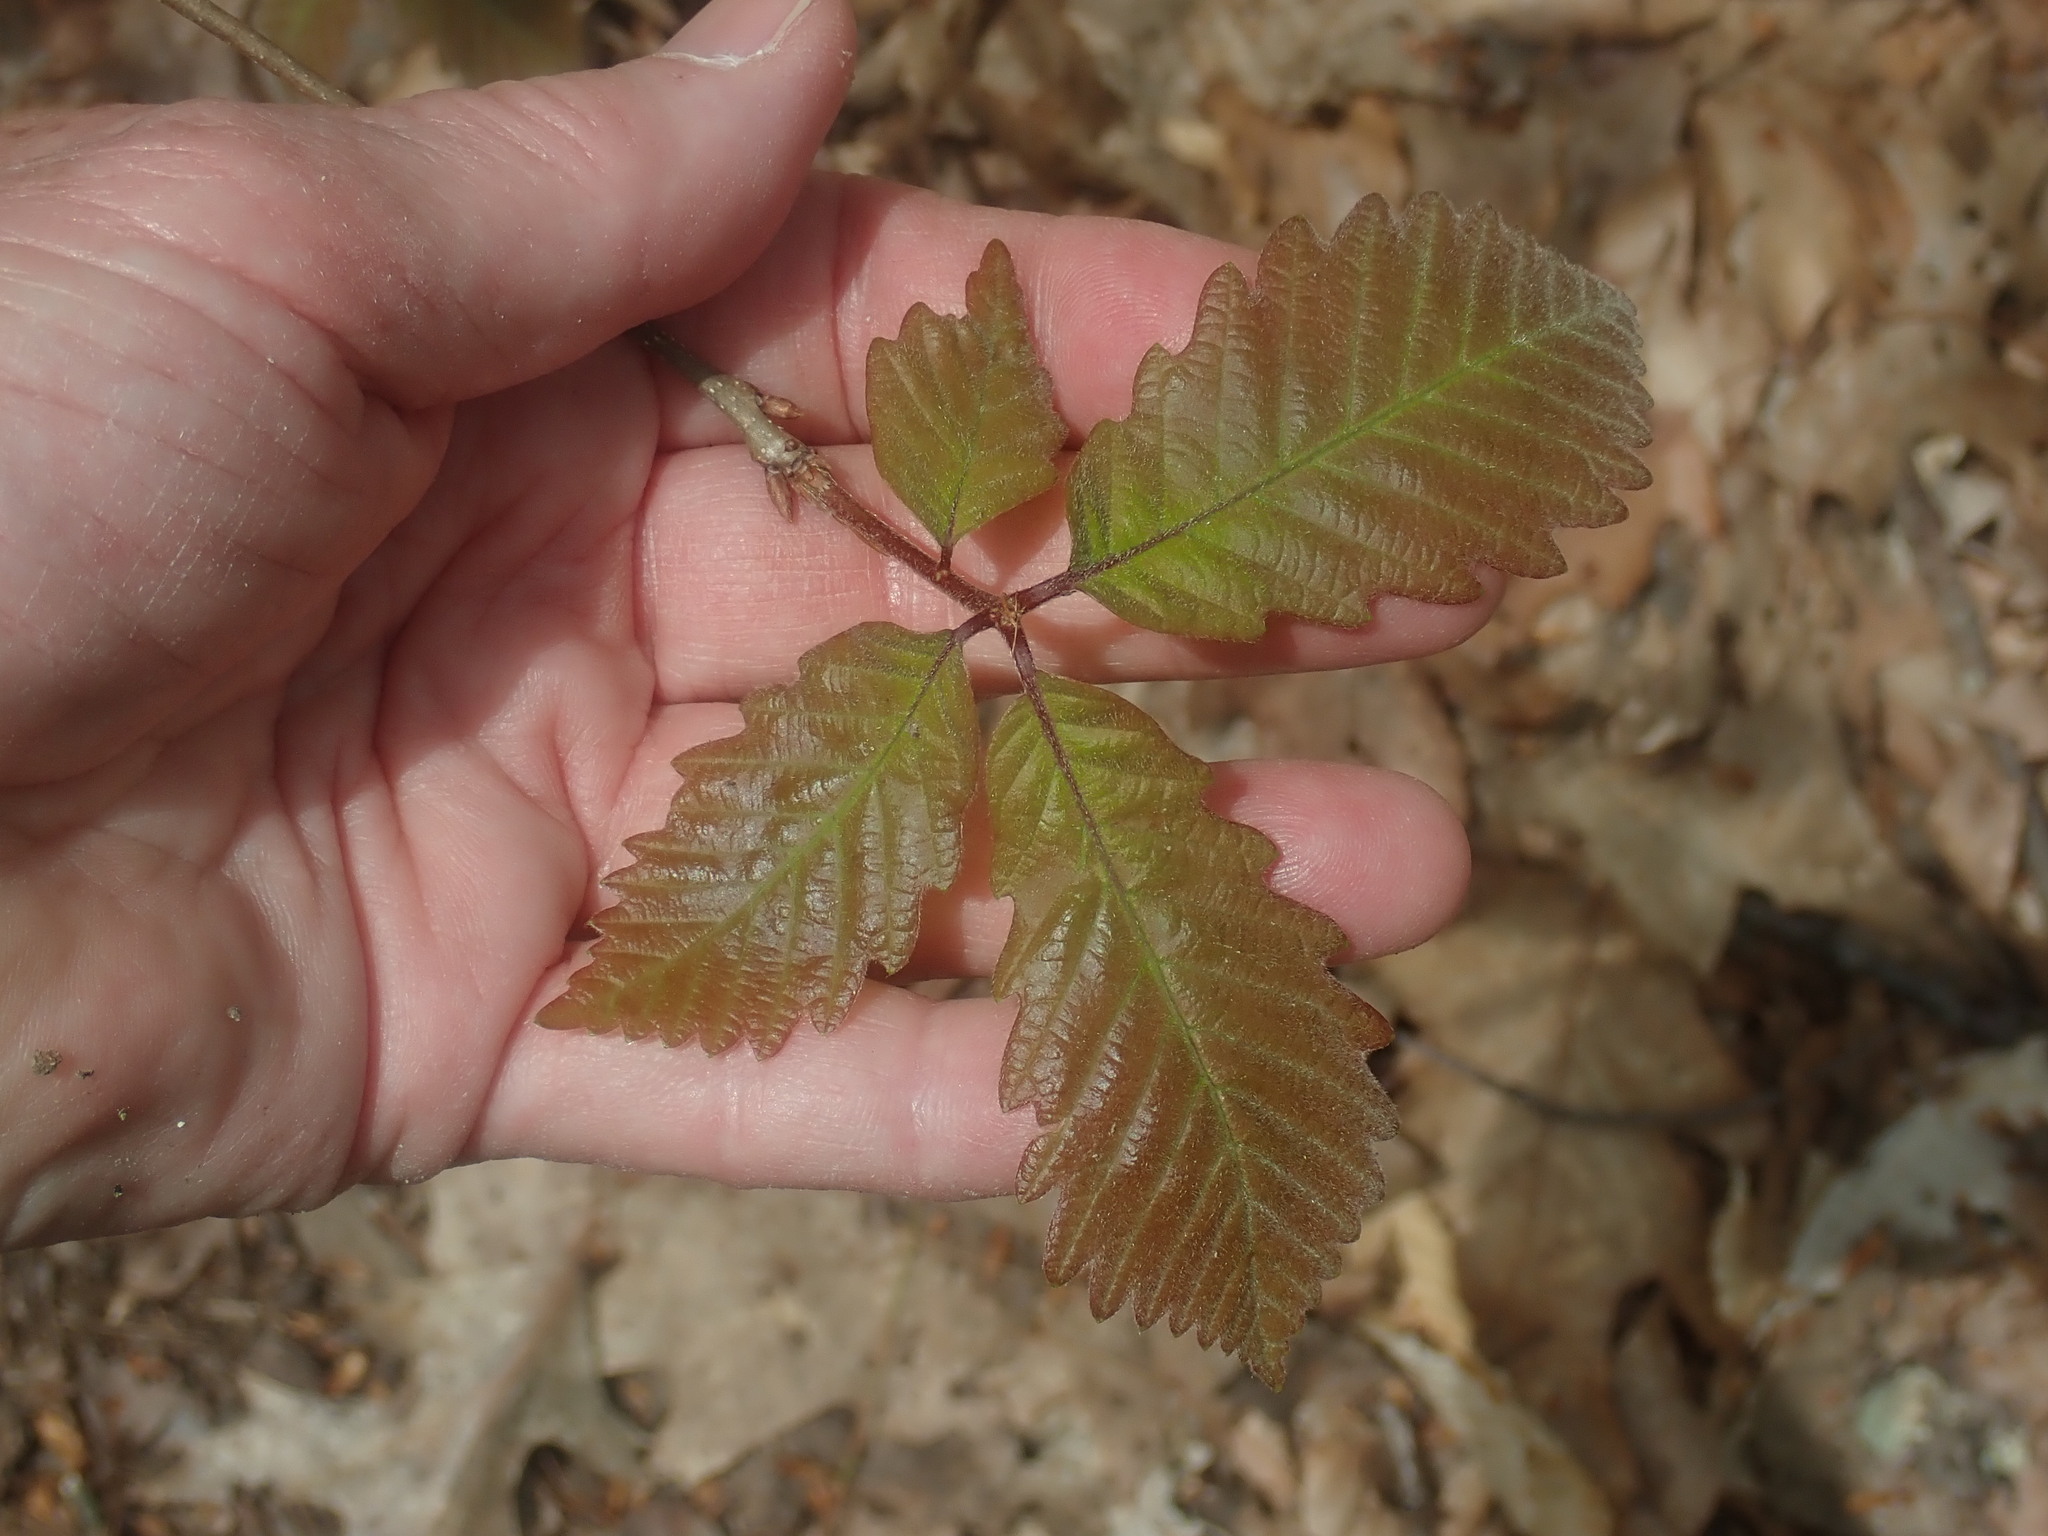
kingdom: Plantae
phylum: Tracheophyta
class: Magnoliopsida
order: Fagales
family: Fagaceae
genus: Quercus
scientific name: Quercus montana
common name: Chestnut oak
